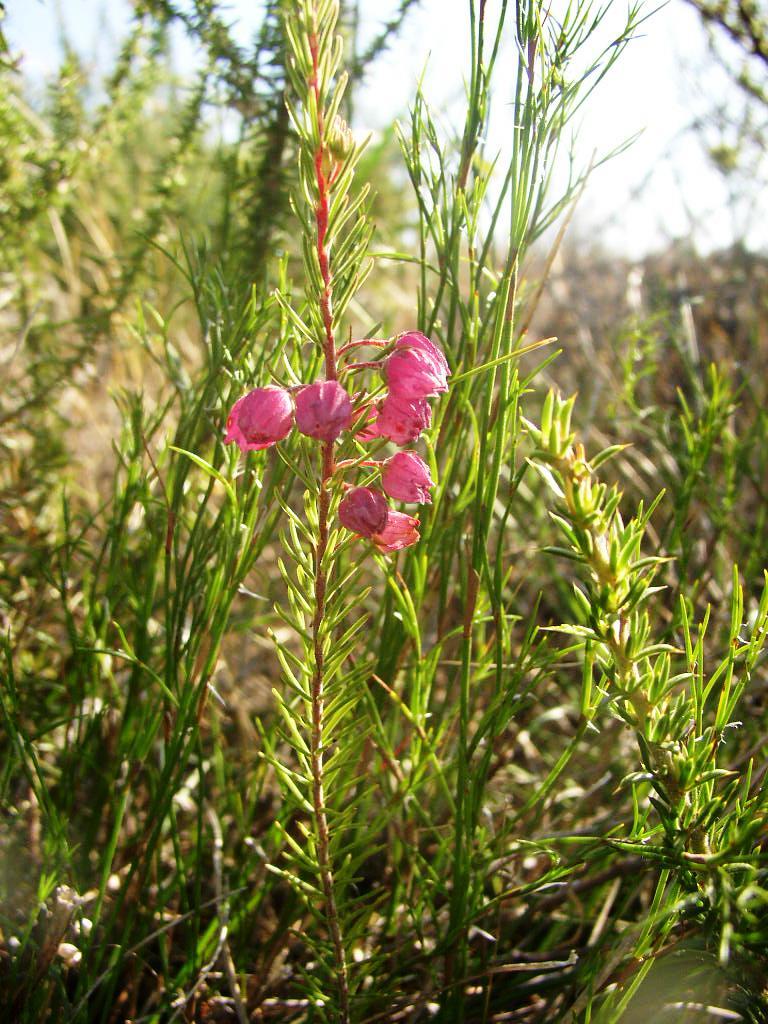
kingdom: Plantae
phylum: Tracheophyta
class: Magnoliopsida
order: Ericales
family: Ericaceae
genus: Erica
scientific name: Erica viscaria
